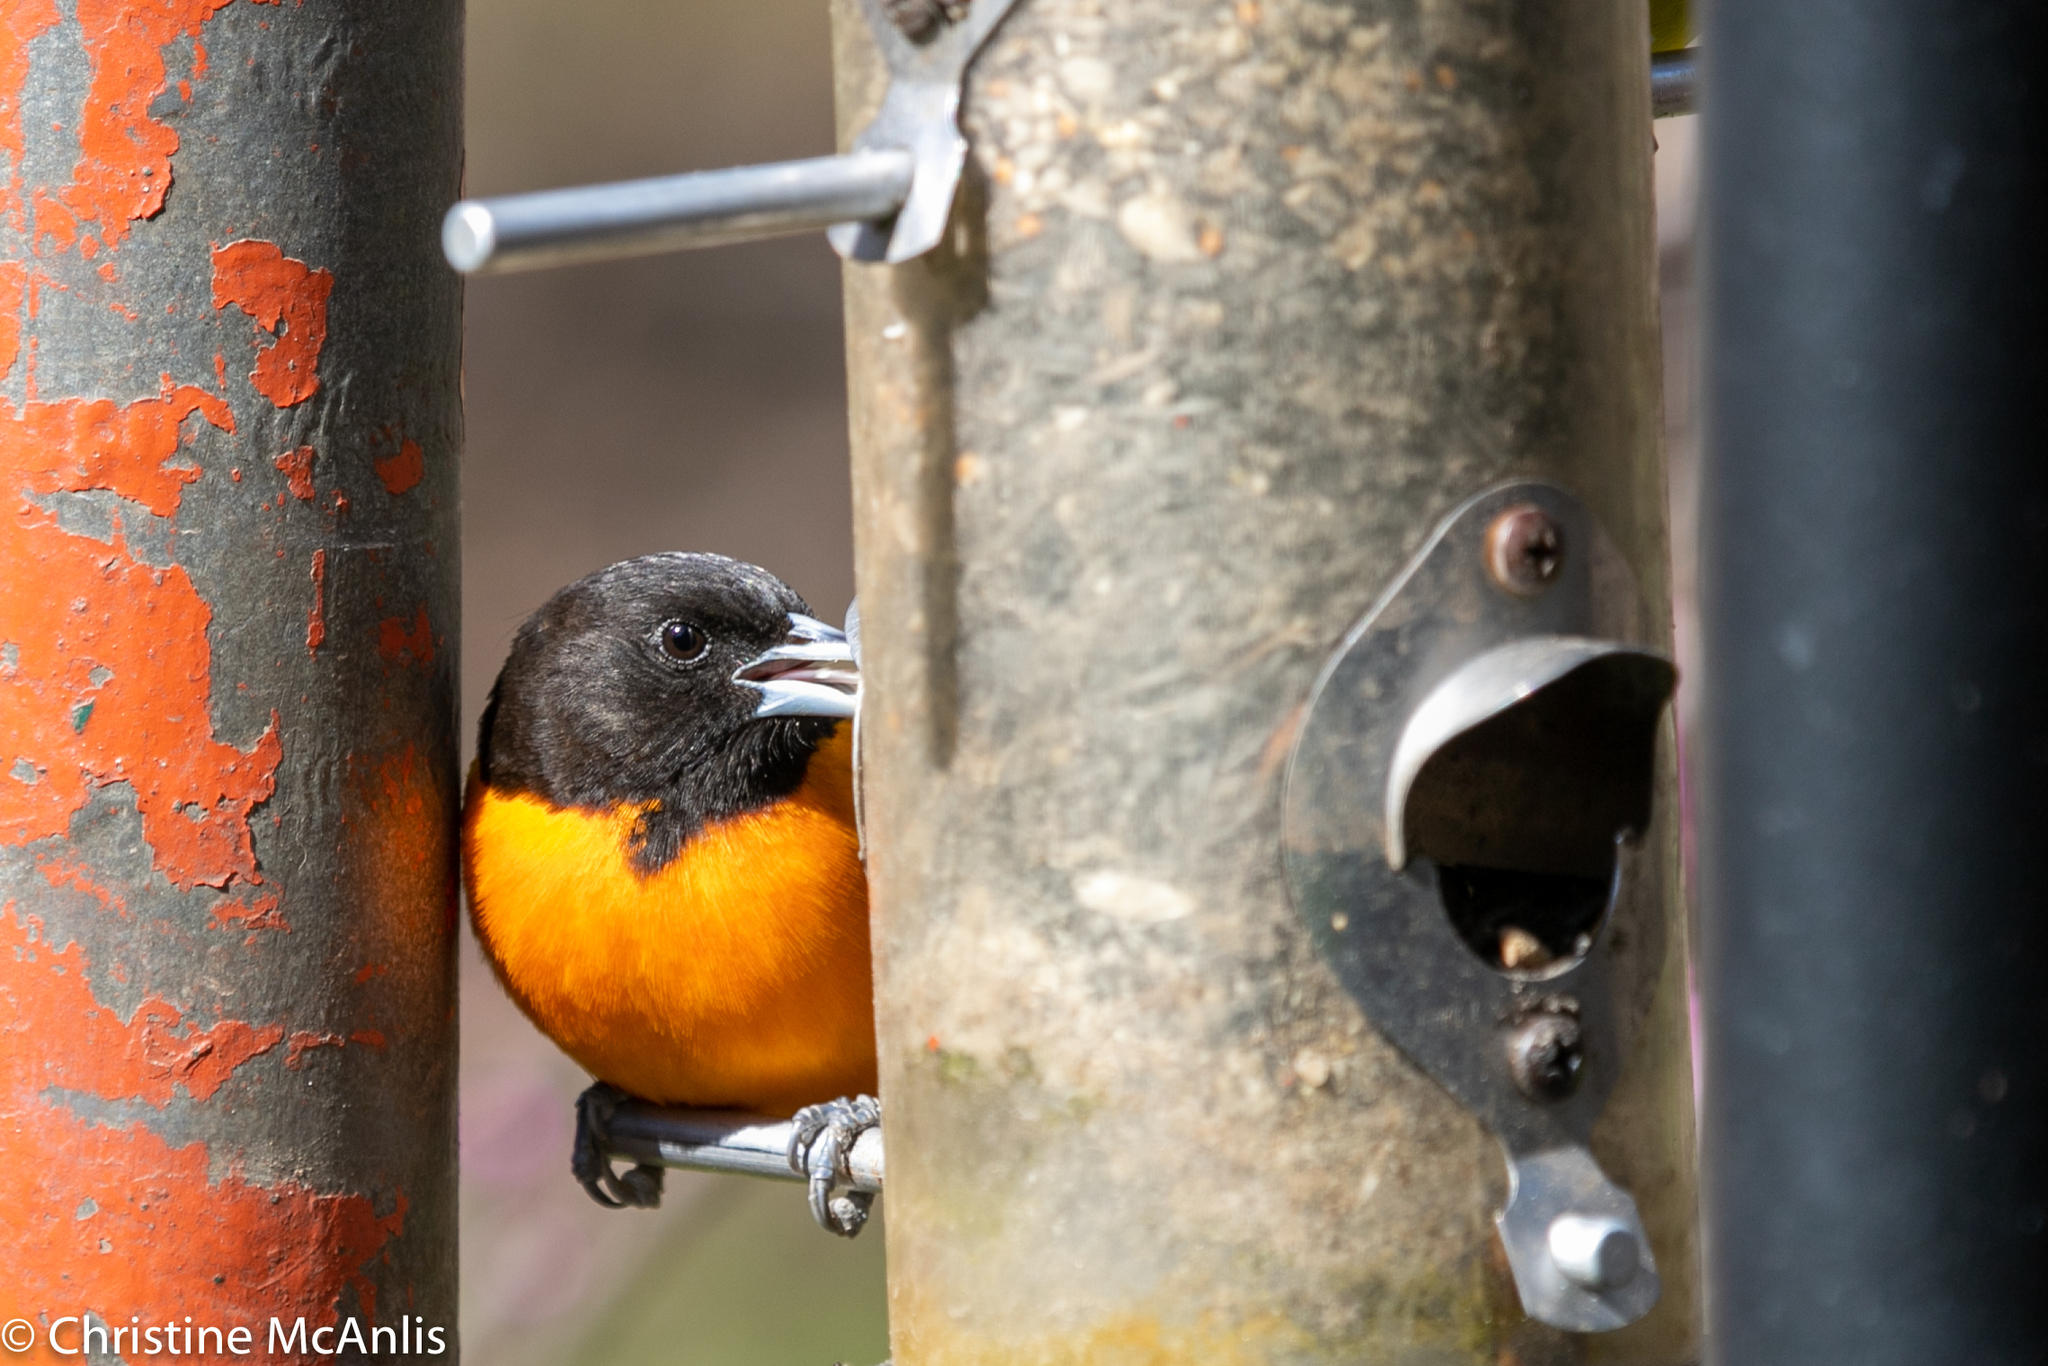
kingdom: Animalia
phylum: Chordata
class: Aves
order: Passeriformes
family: Icteridae
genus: Icterus
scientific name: Icterus galbula
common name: Baltimore oriole
